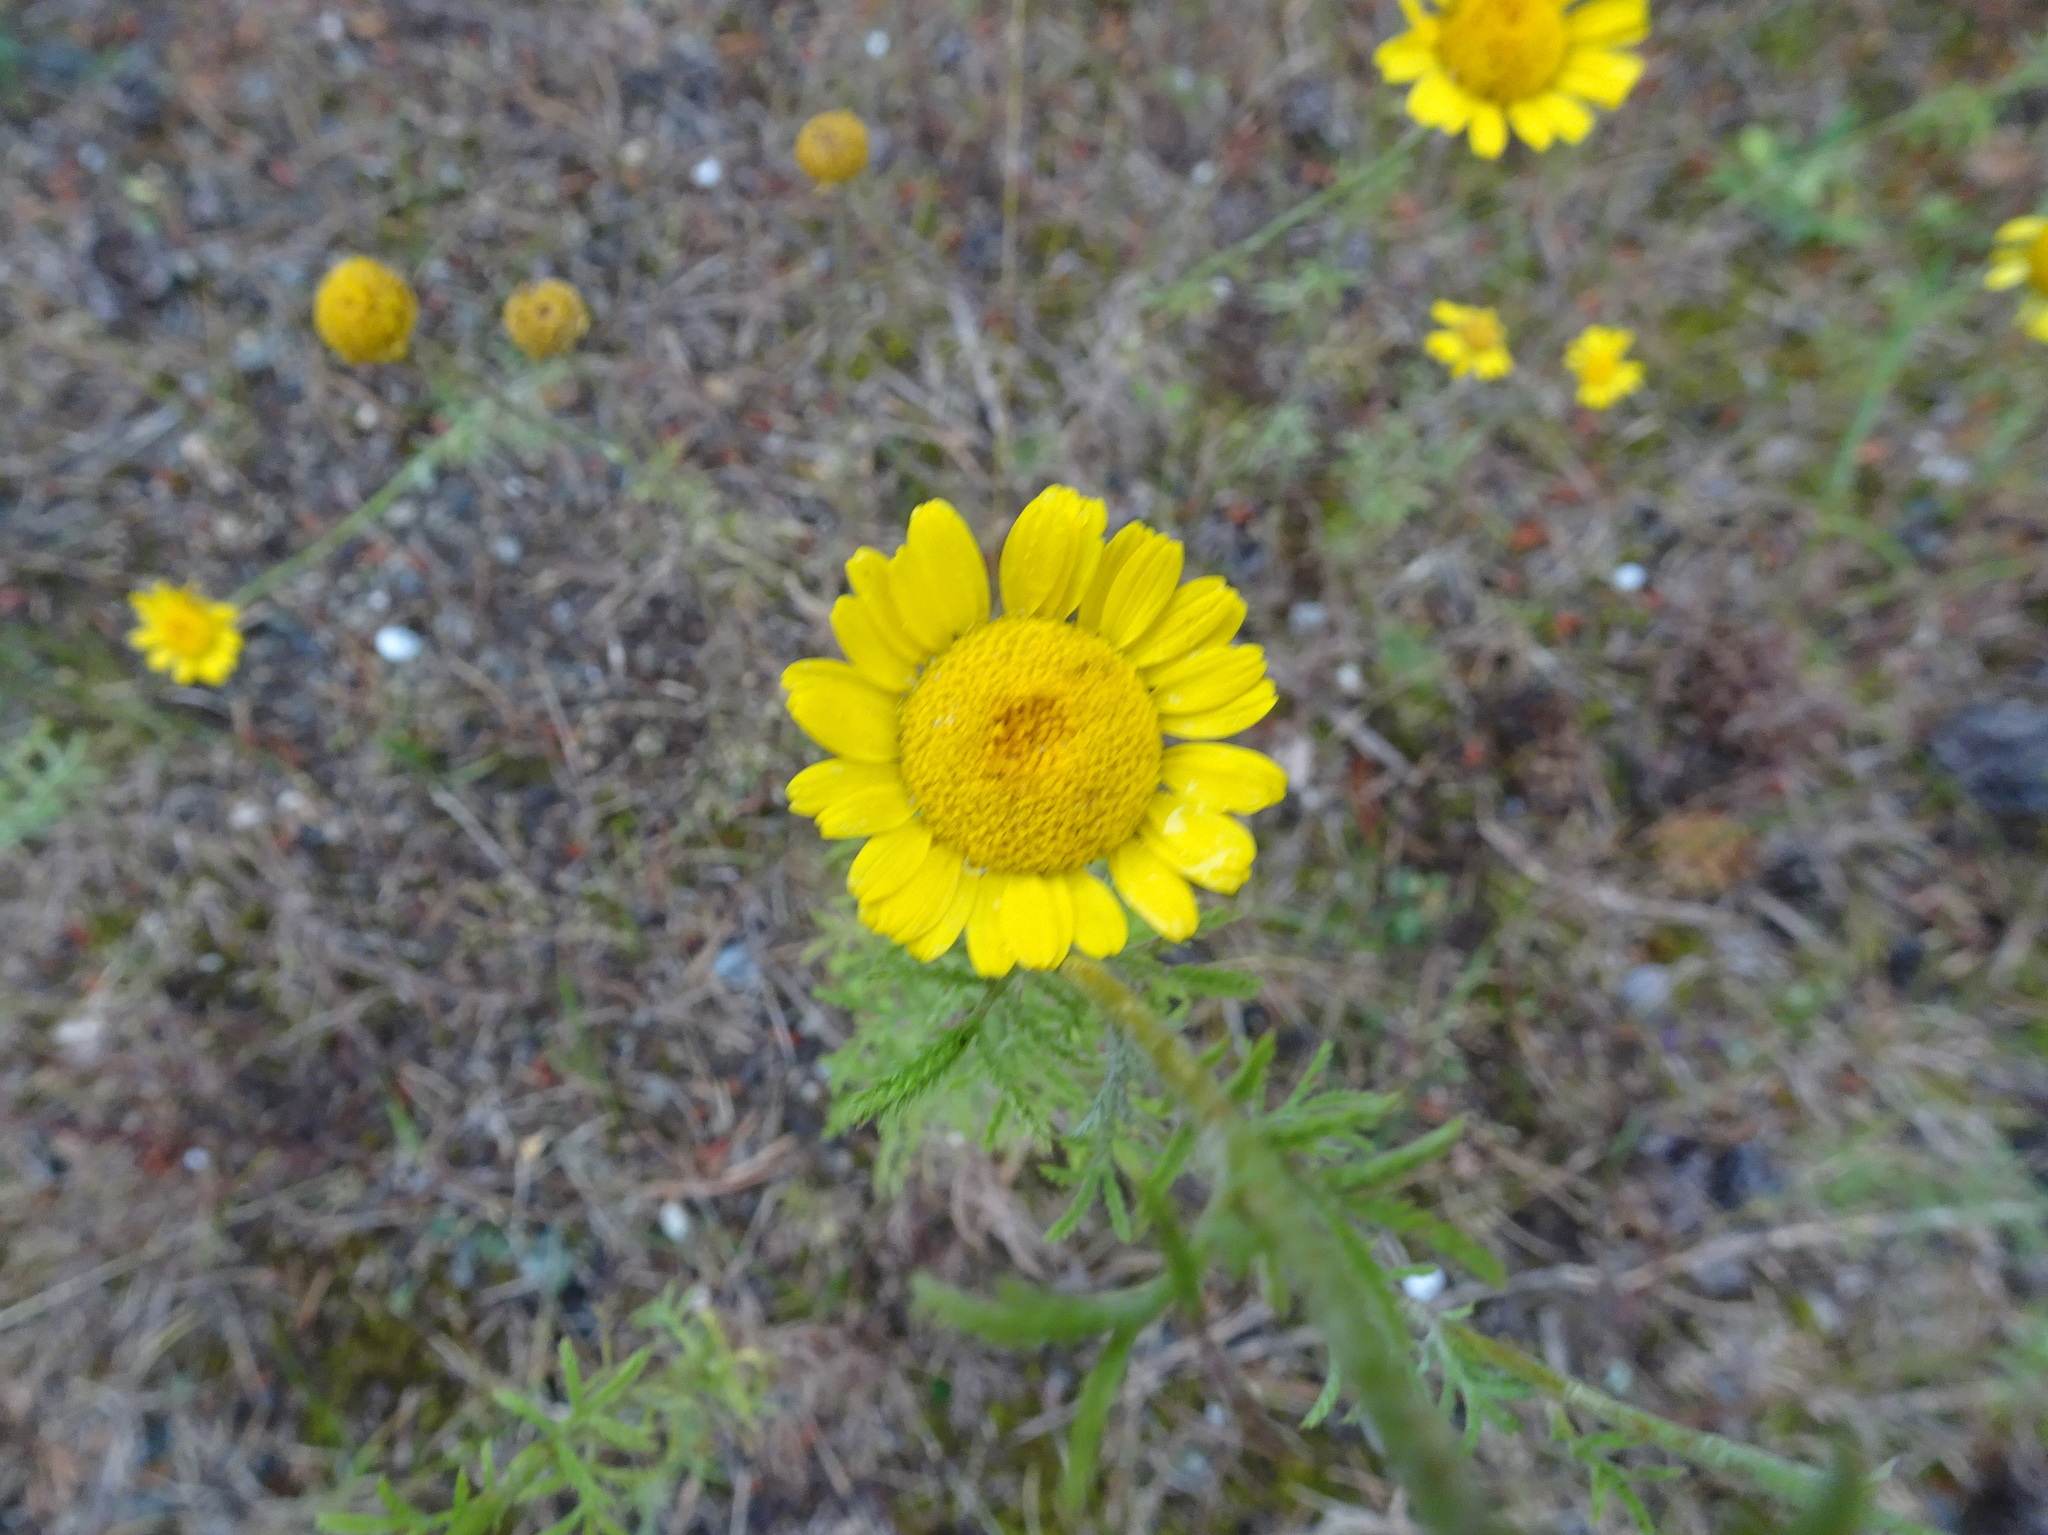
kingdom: Plantae
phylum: Tracheophyta
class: Magnoliopsida
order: Asterales
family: Asteraceae
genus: Cota
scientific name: Cota tinctoria
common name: Golden chamomile
